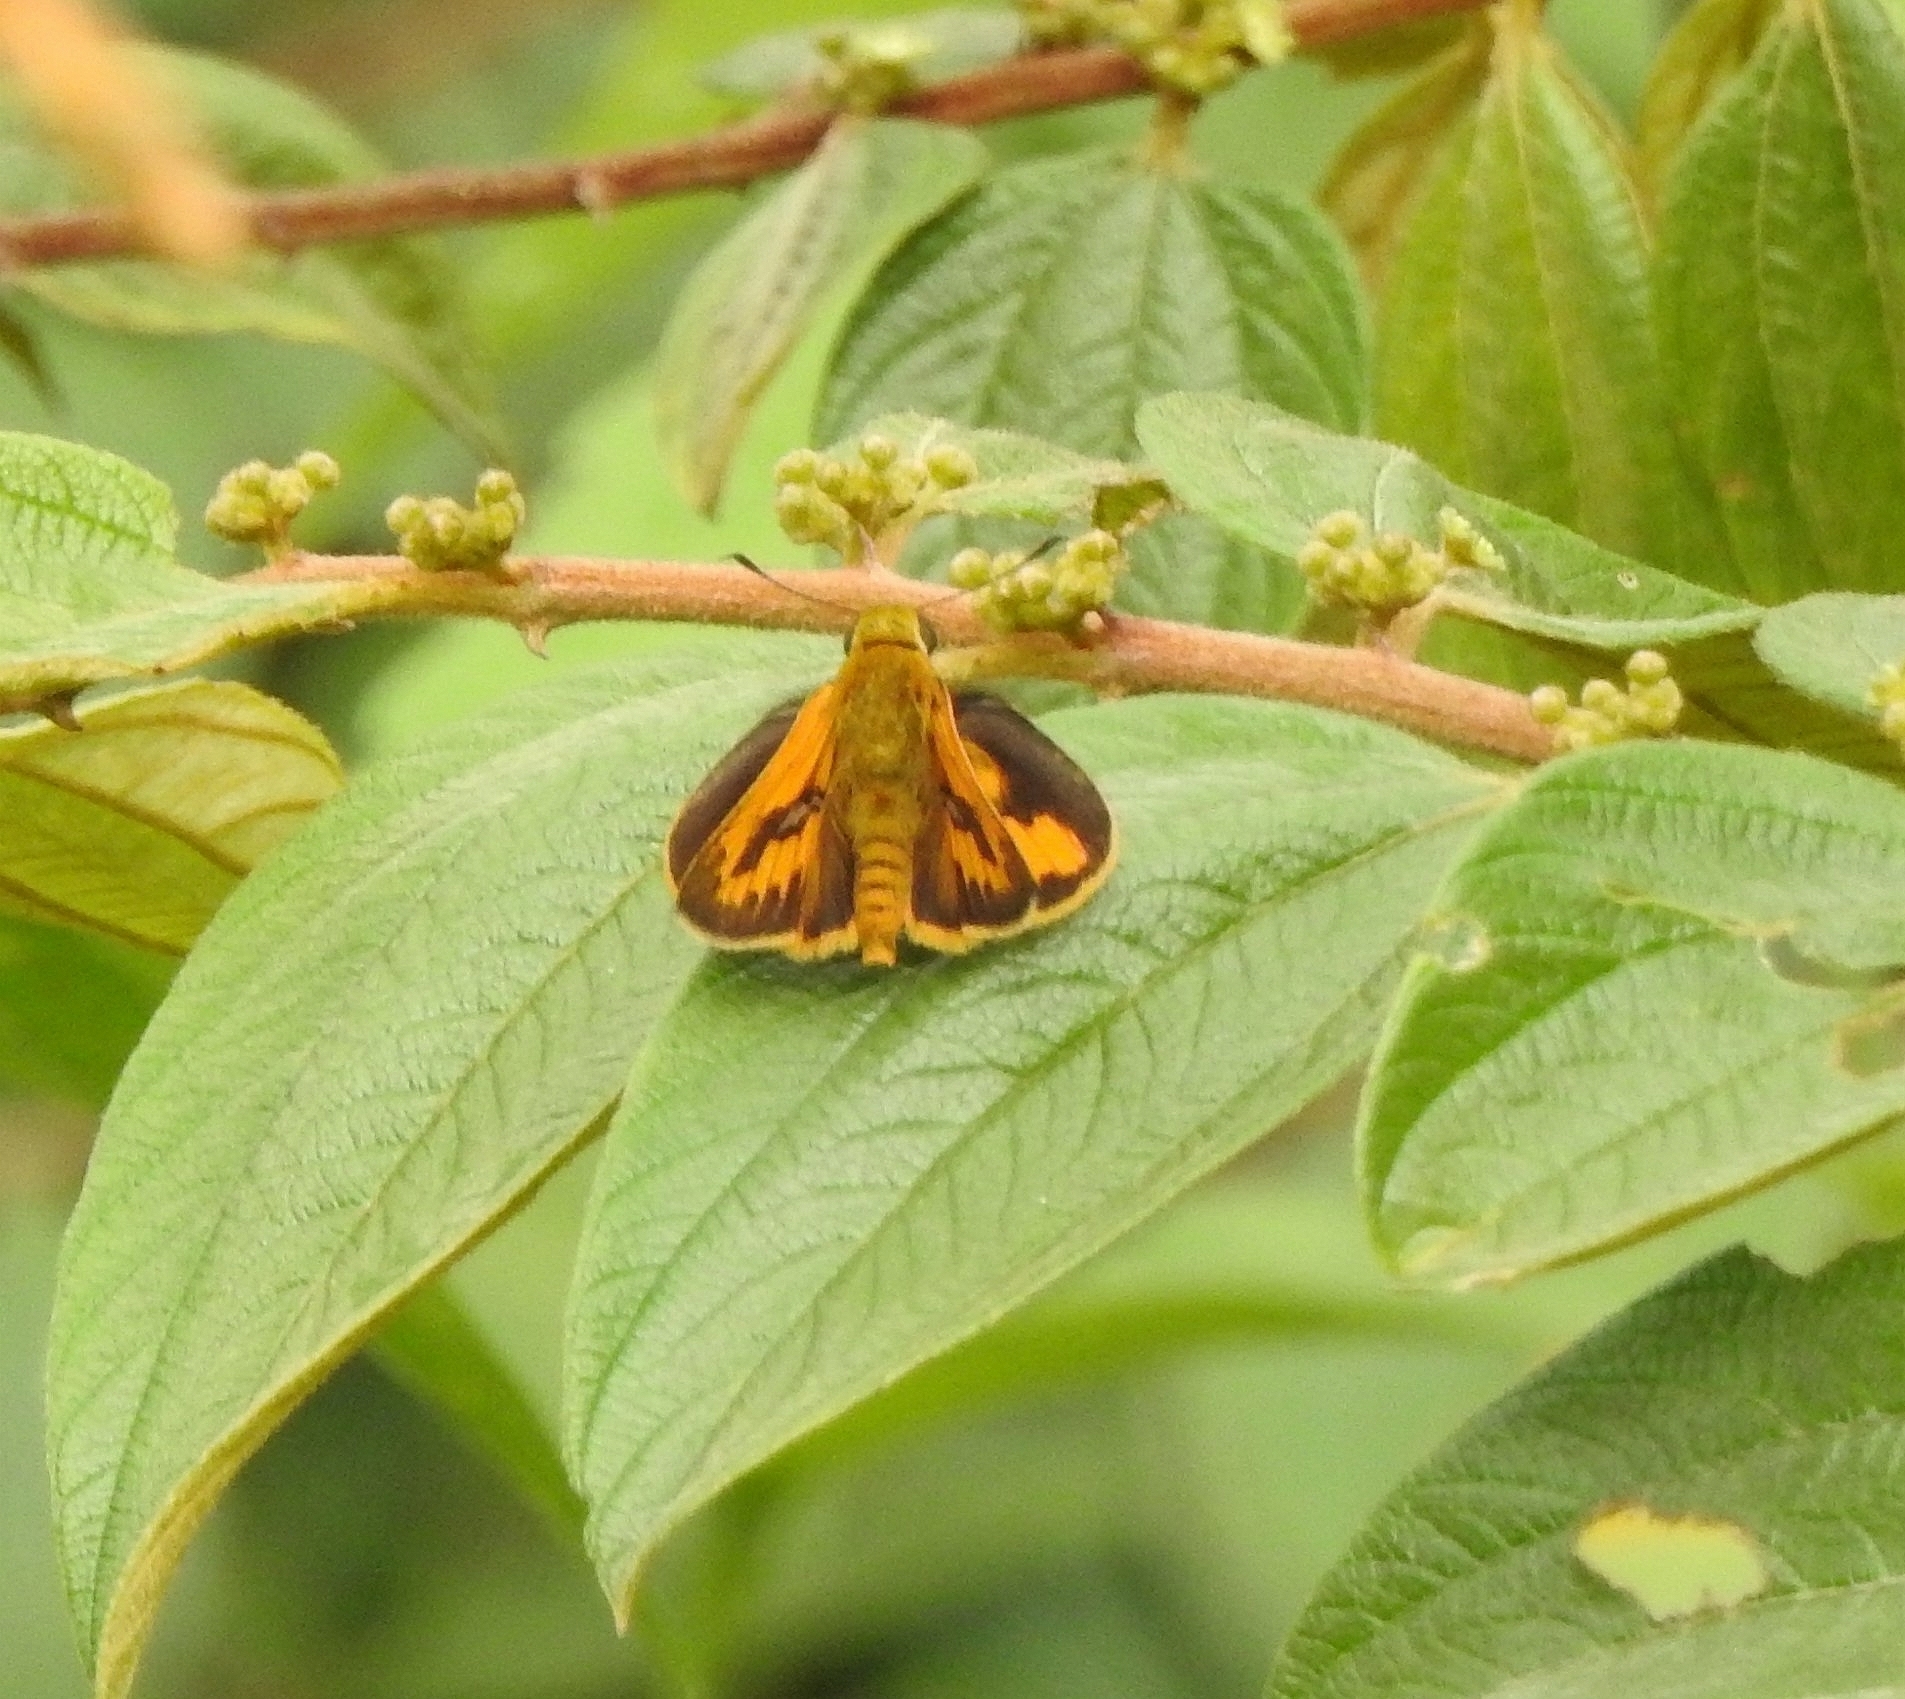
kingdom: Animalia
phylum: Arthropoda
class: Insecta
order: Lepidoptera
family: Hesperiidae
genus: Telicota
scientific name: Telicota colon
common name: Pale palm dart
